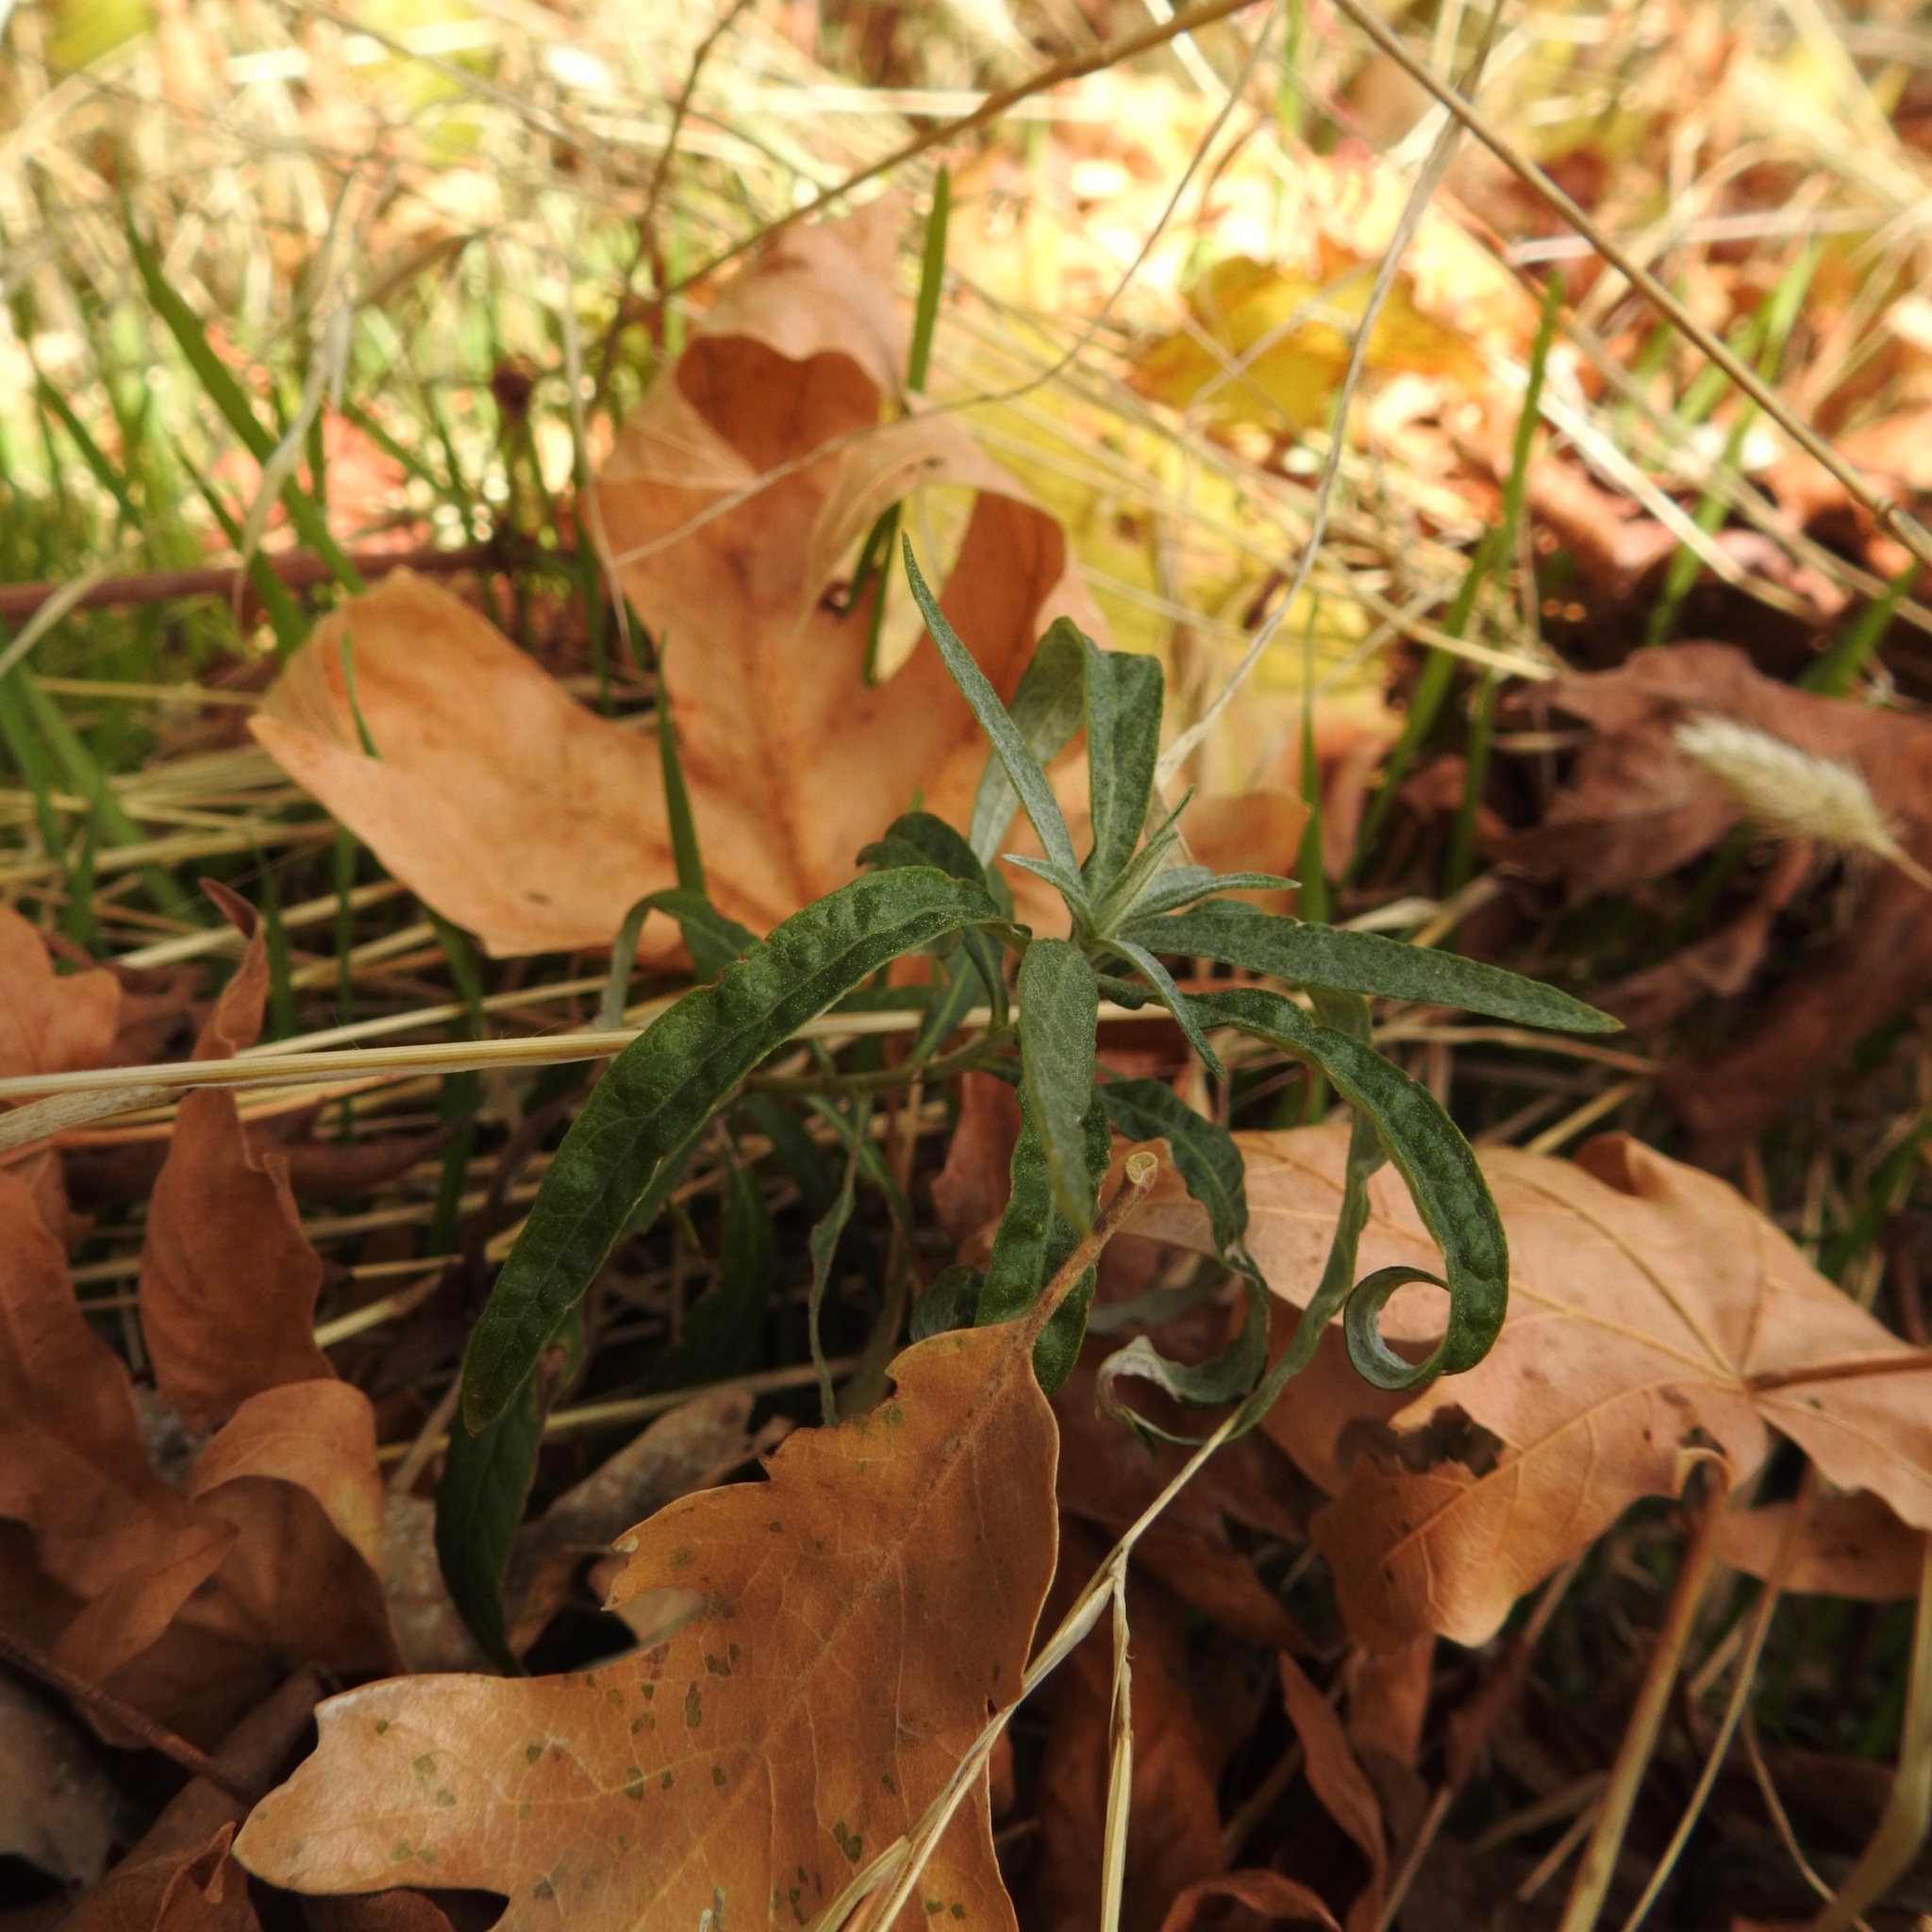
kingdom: Plantae
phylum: Tracheophyta
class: Magnoliopsida
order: Asterales
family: Asteraceae
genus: Artemisia
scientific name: Artemisia douglasiana
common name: Northwest mugwort
